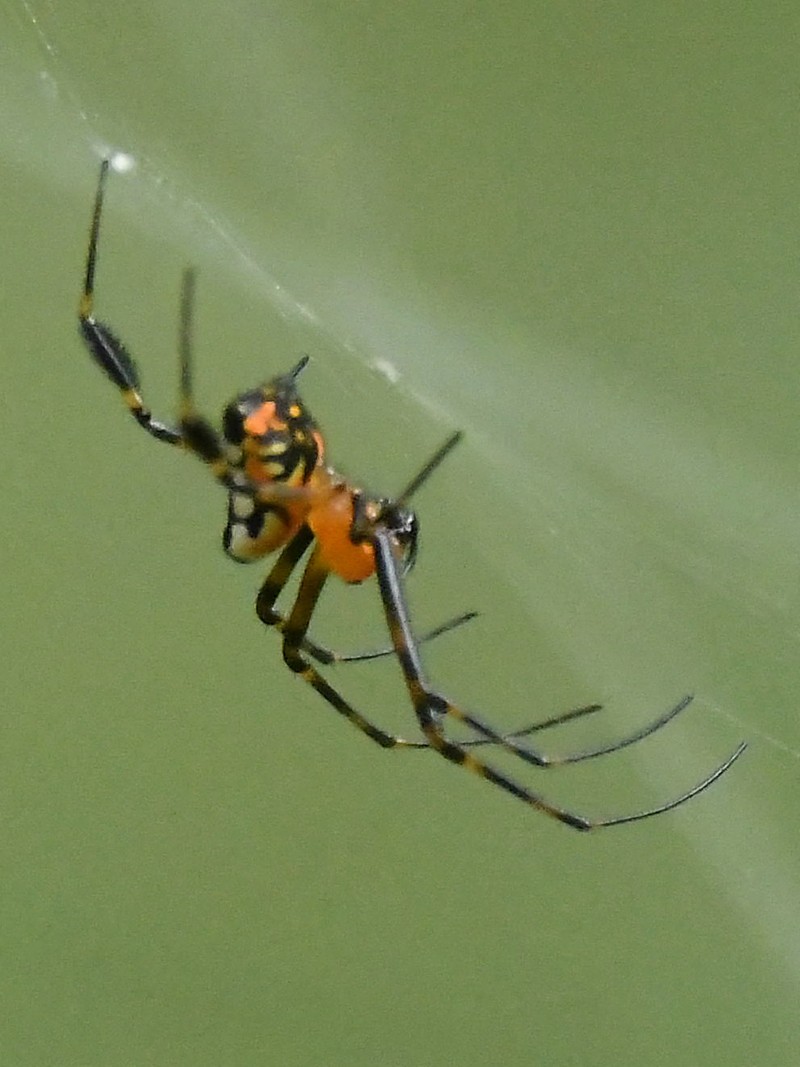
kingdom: Animalia
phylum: Arthropoda
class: Arachnida
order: Araneae
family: Tetragnathidae
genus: Leucauge
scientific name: Leucauge fastigata
